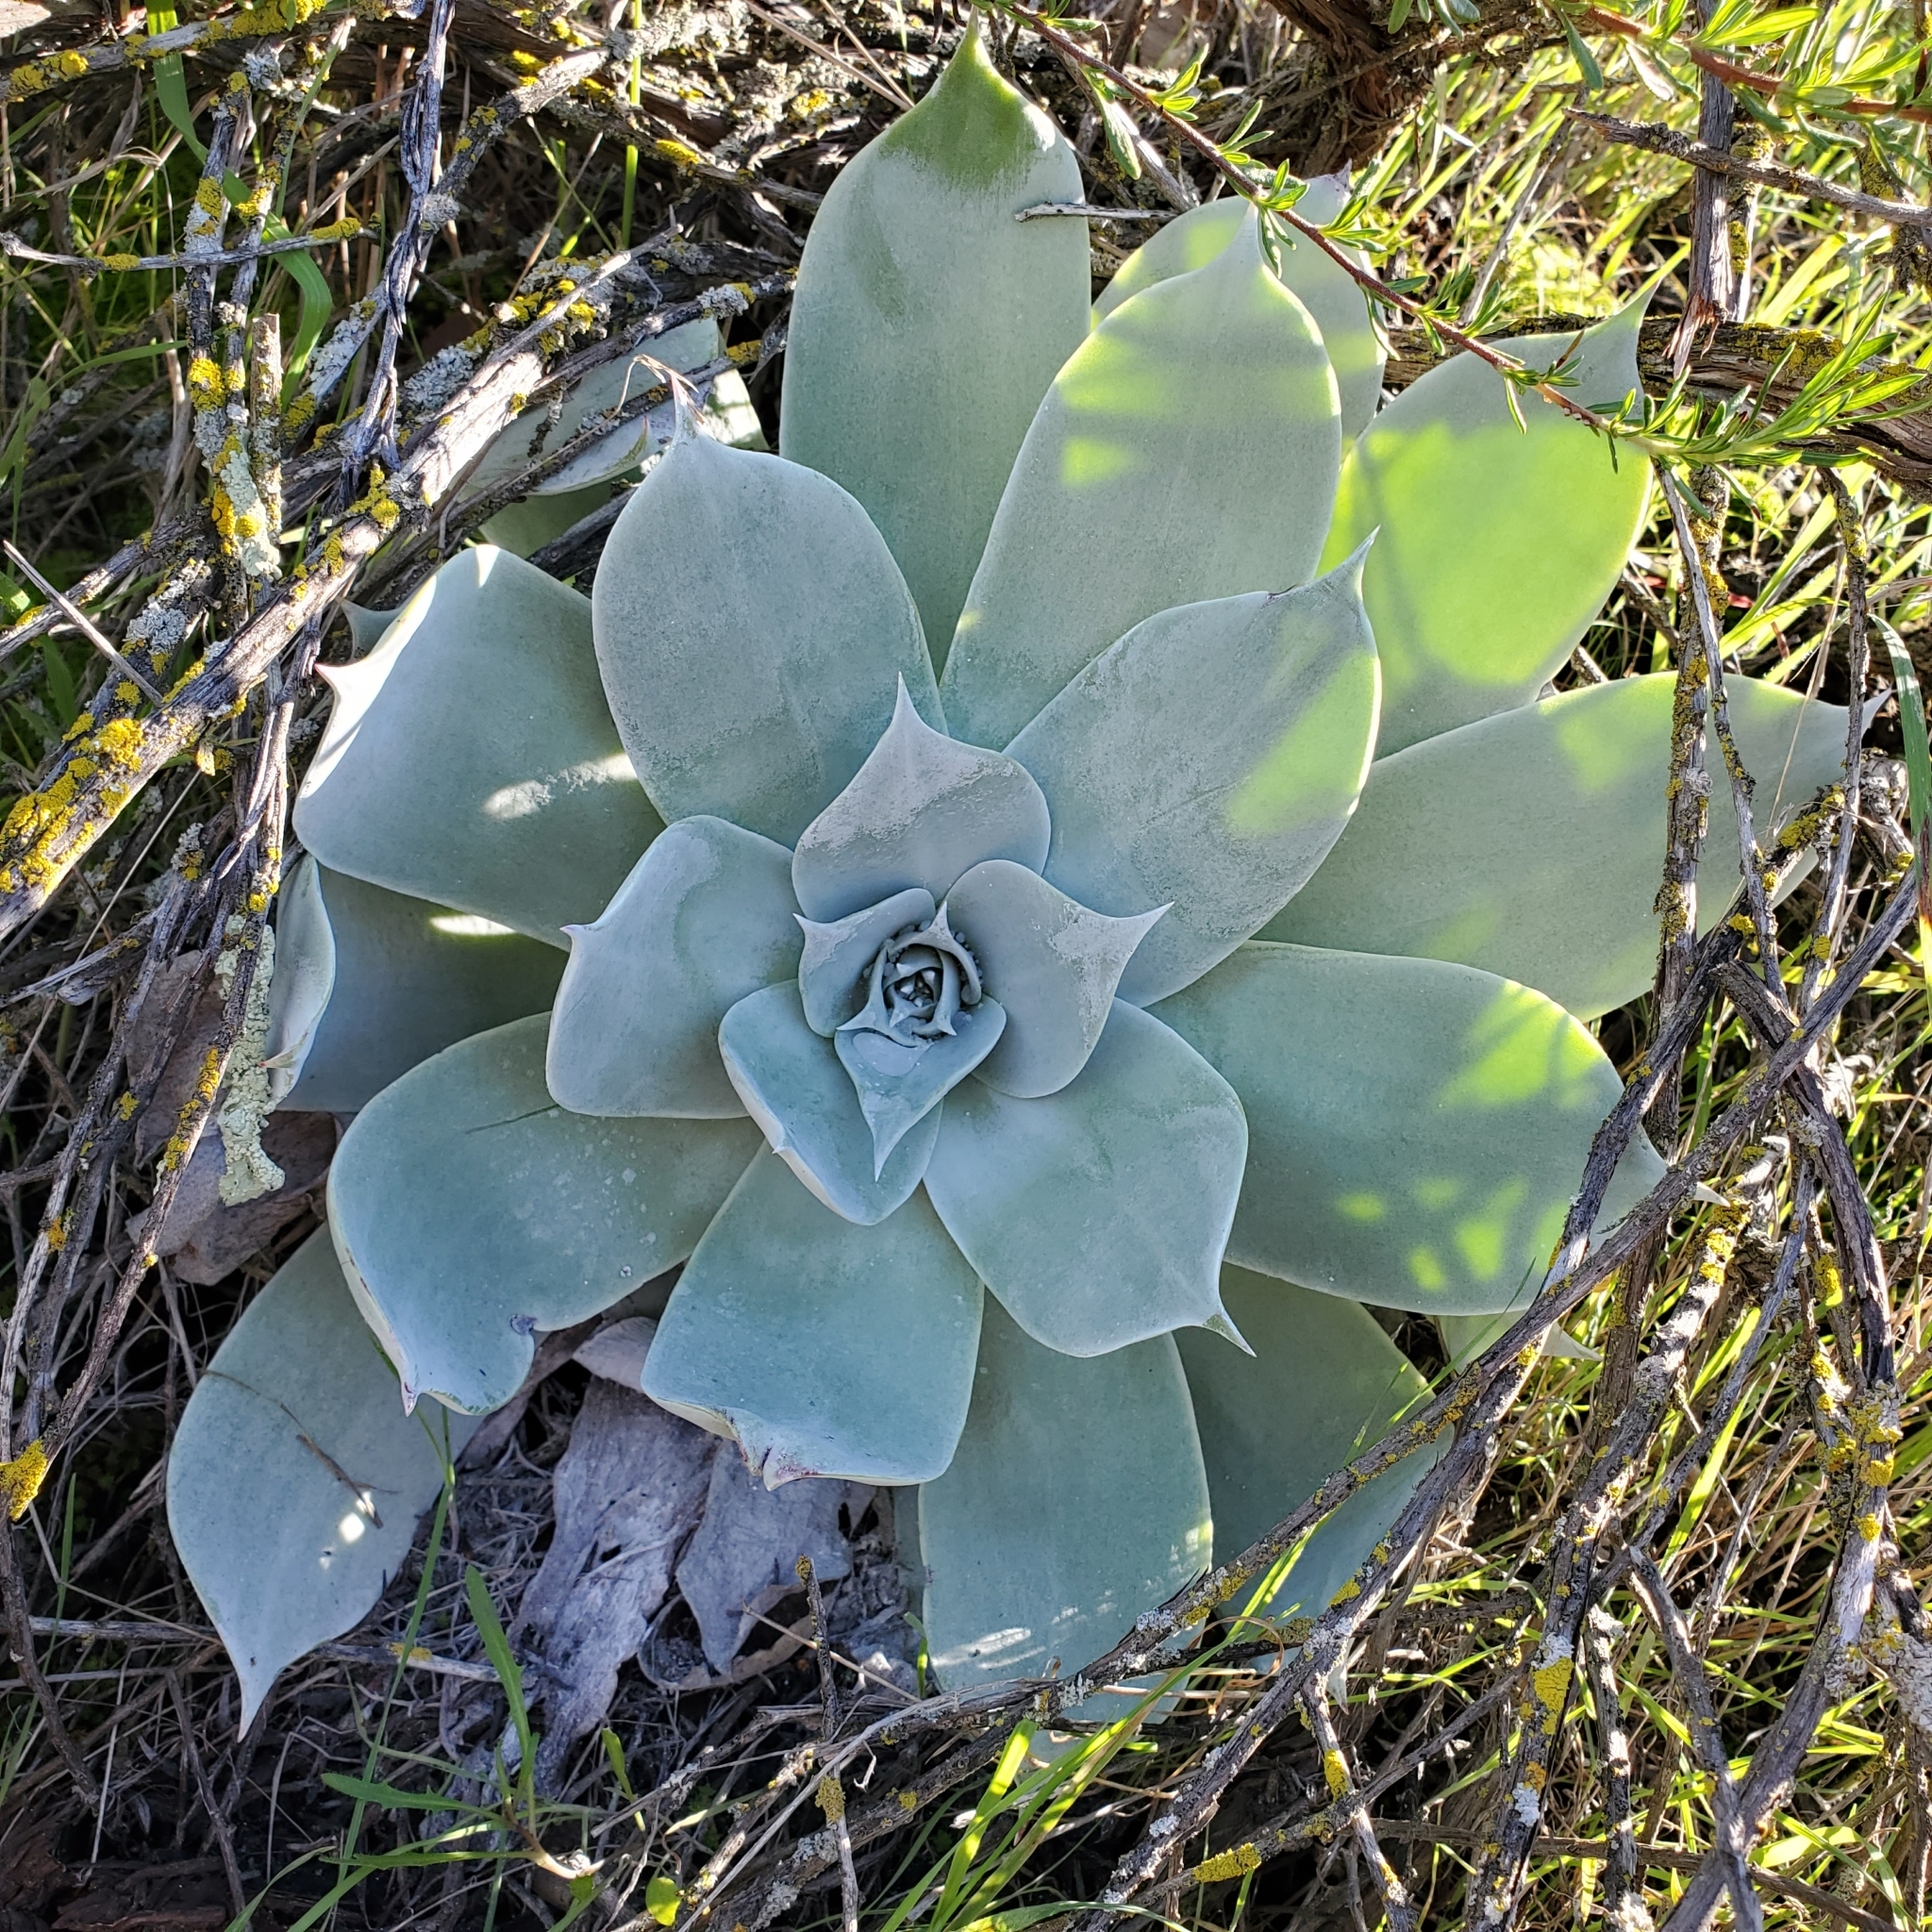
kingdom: Plantae
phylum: Tracheophyta
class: Magnoliopsida
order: Saxifragales
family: Crassulaceae
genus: Dudleya
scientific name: Dudleya pulverulenta
